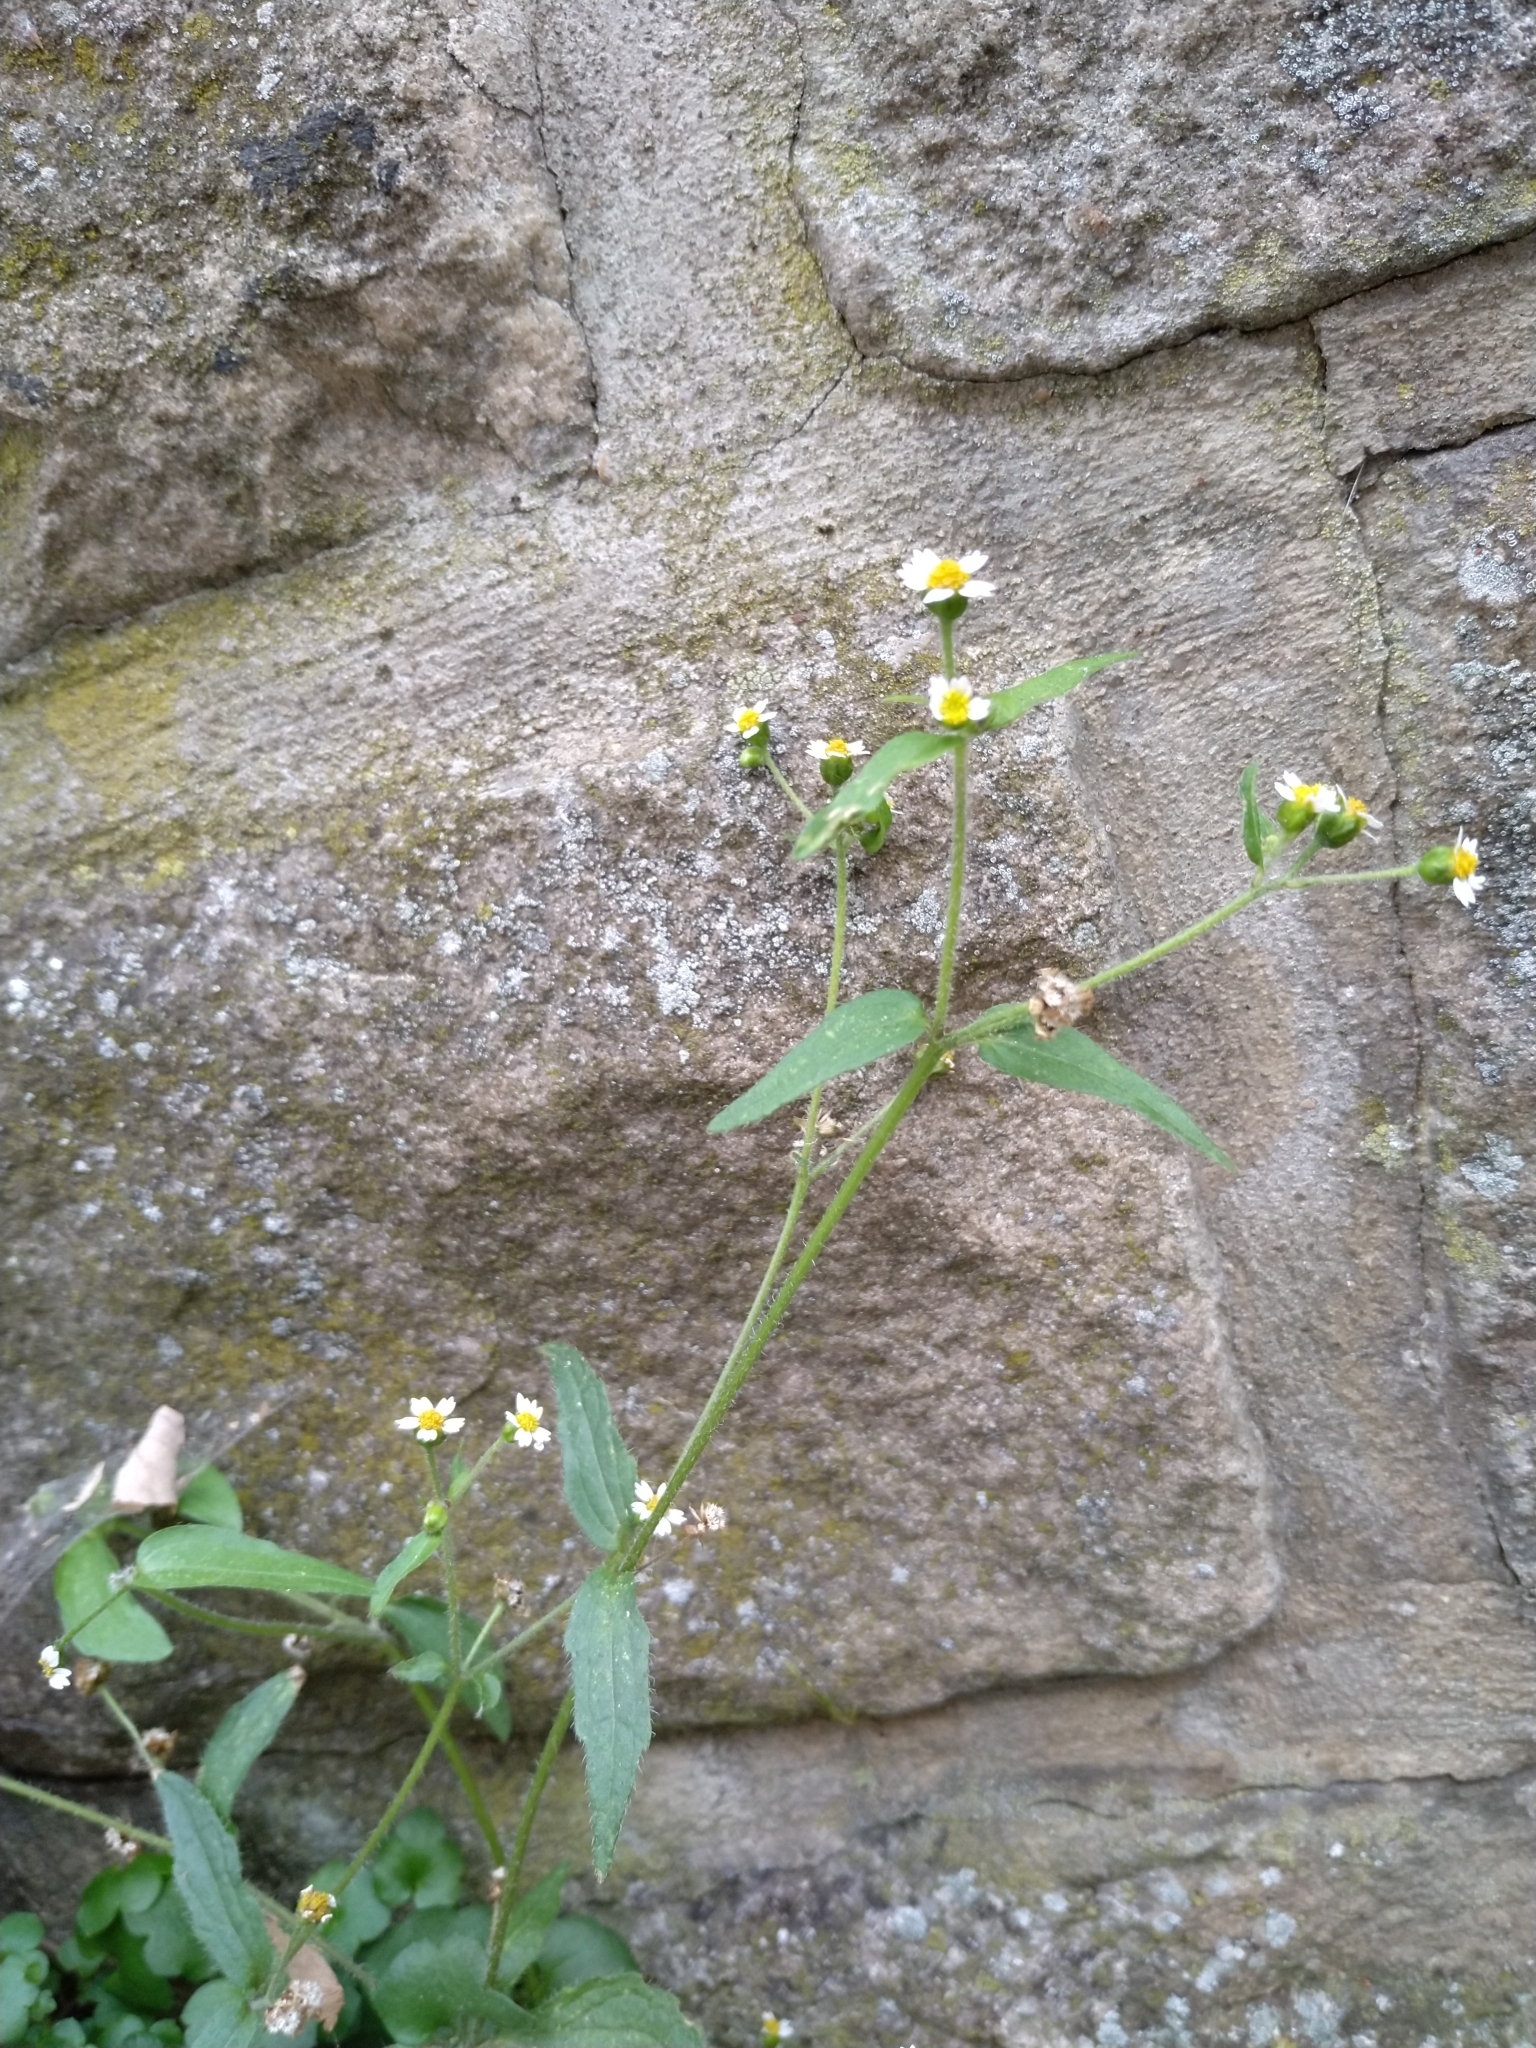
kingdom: Plantae
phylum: Tracheophyta
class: Magnoliopsida
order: Asterales
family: Asteraceae
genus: Galinsoga
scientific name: Galinsoga quadriradiata
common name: Shaggy soldier
